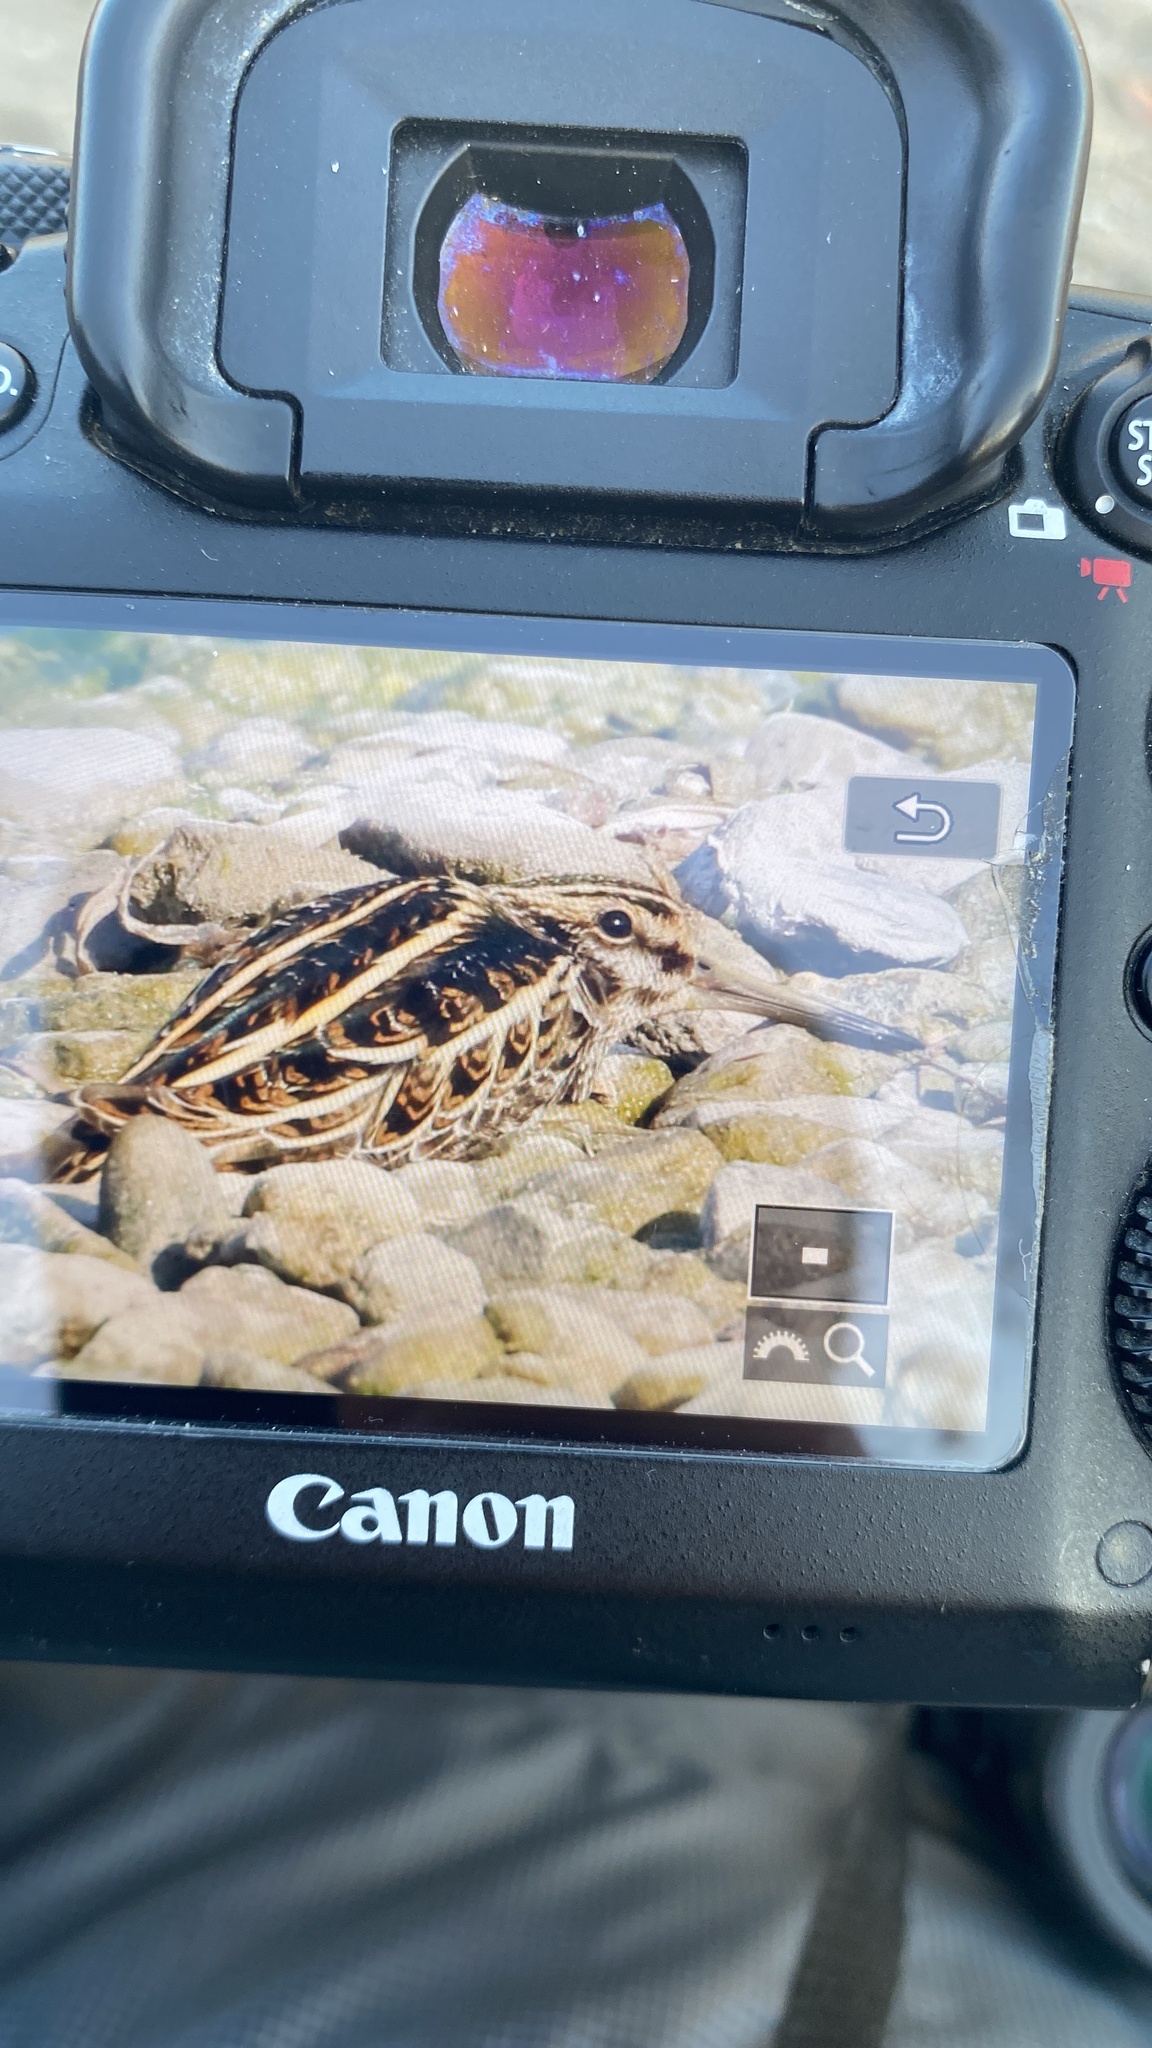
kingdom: Animalia
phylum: Chordata
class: Aves
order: Charadriiformes
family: Scolopacidae
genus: Lymnocryptes
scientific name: Lymnocryptes minimus
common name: Jack snipe
